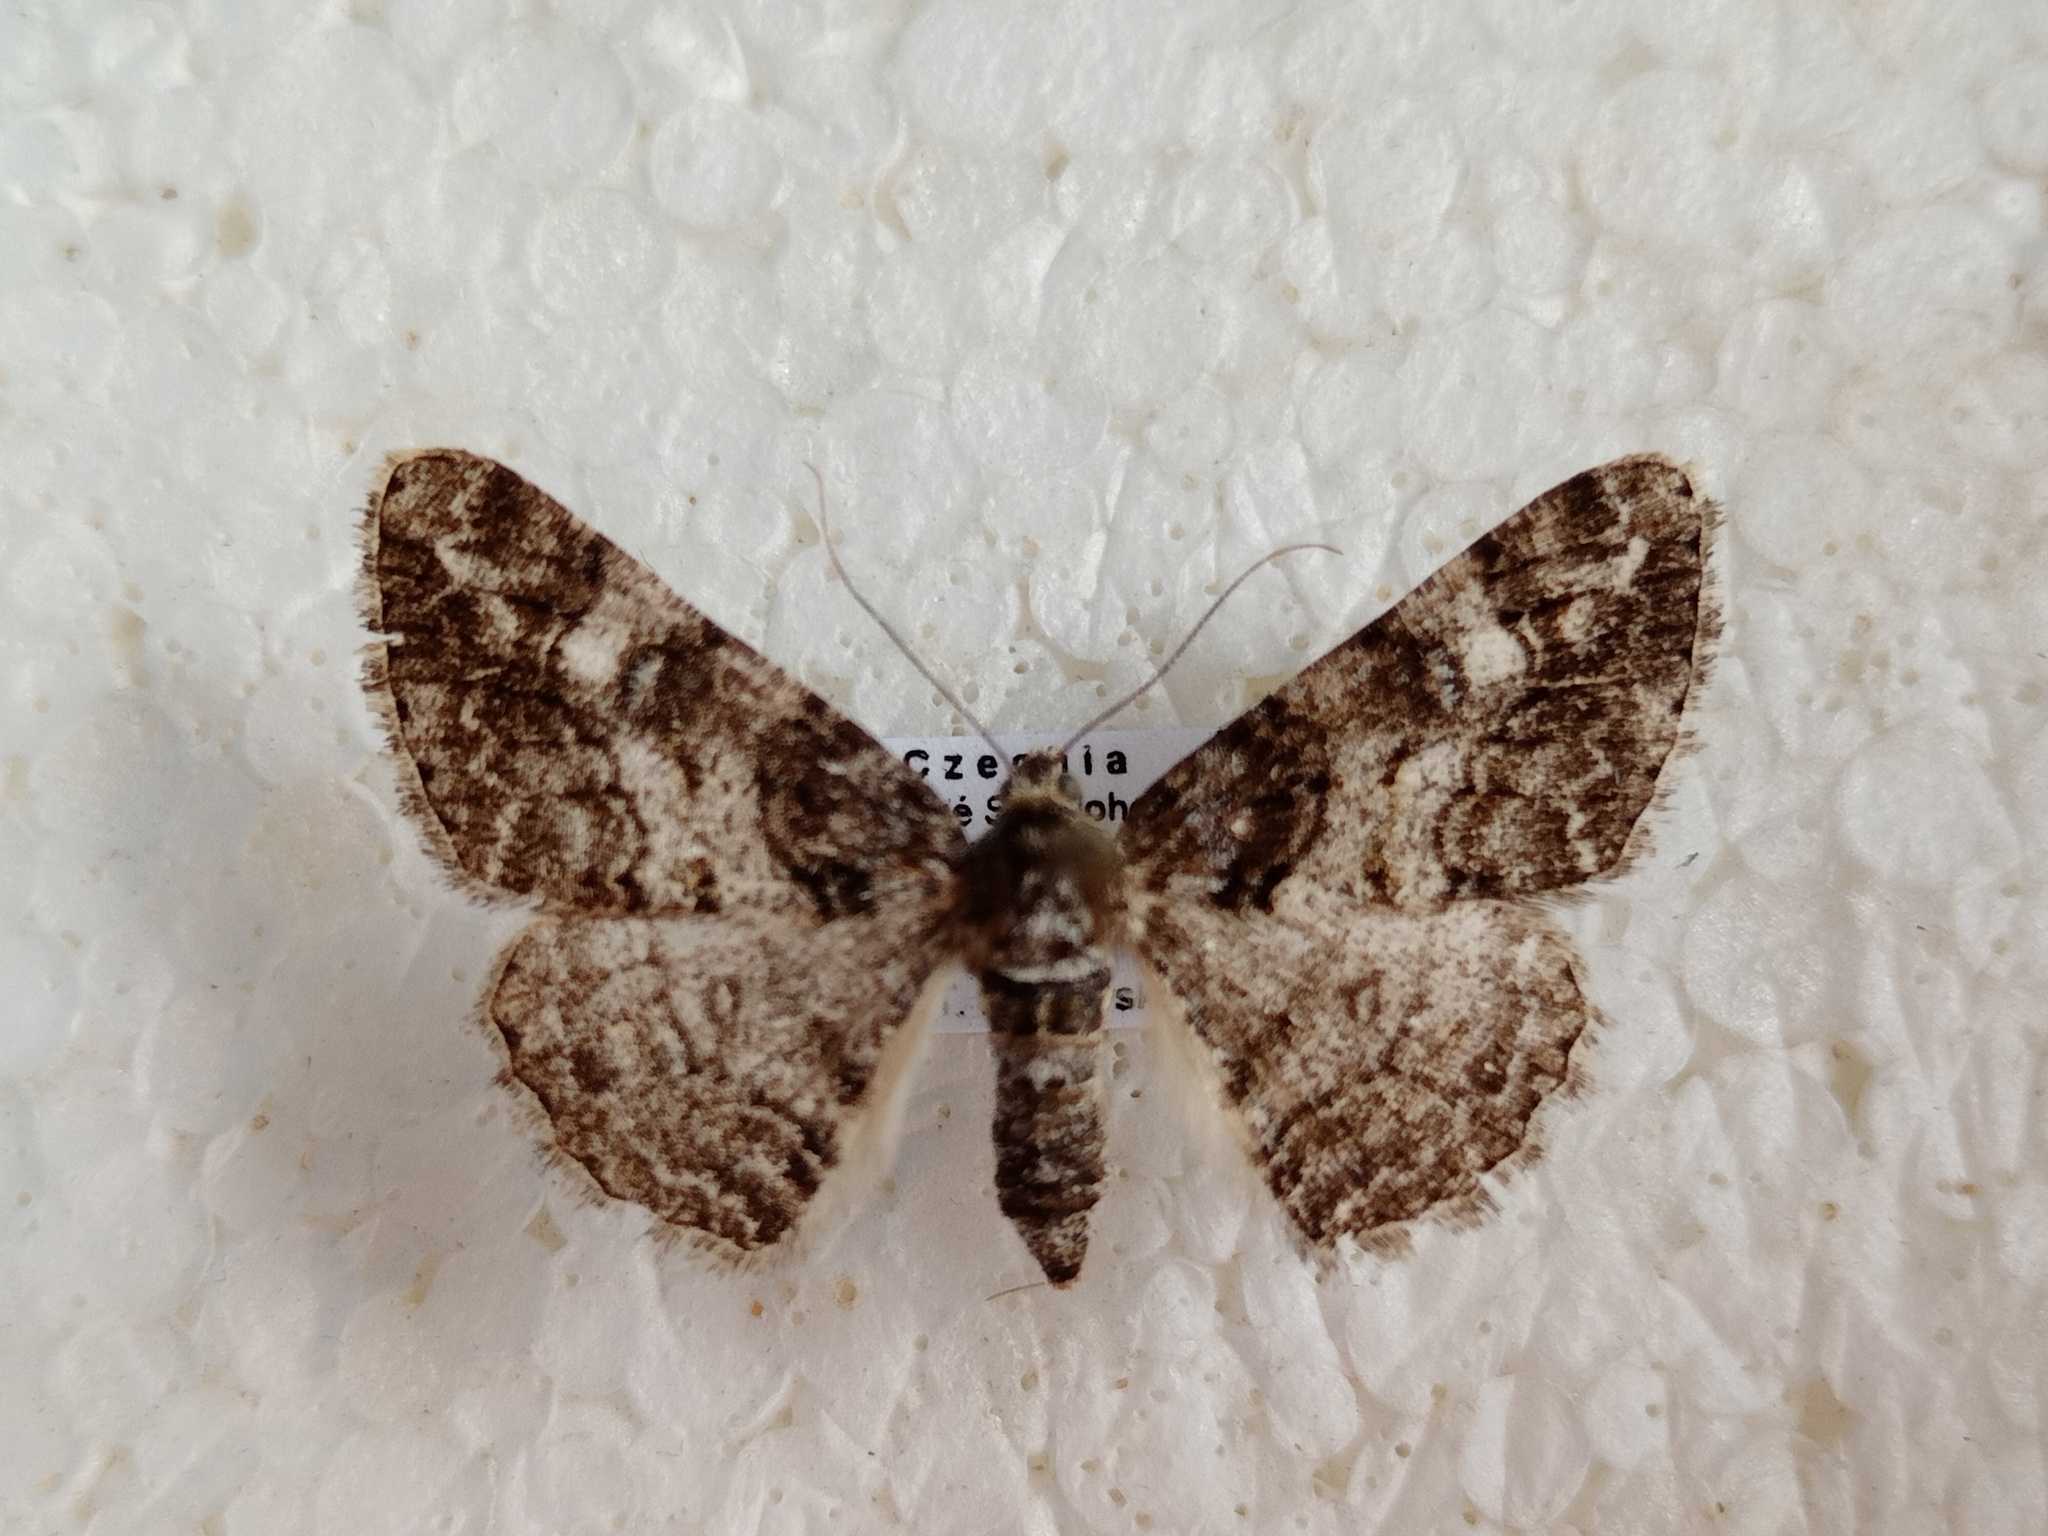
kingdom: Animalia
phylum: Arthropoda
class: Insecta
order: Lepidoptera
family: Geometridae
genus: Cleora
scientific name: Cleora cinctaria
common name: Ringed carpet
